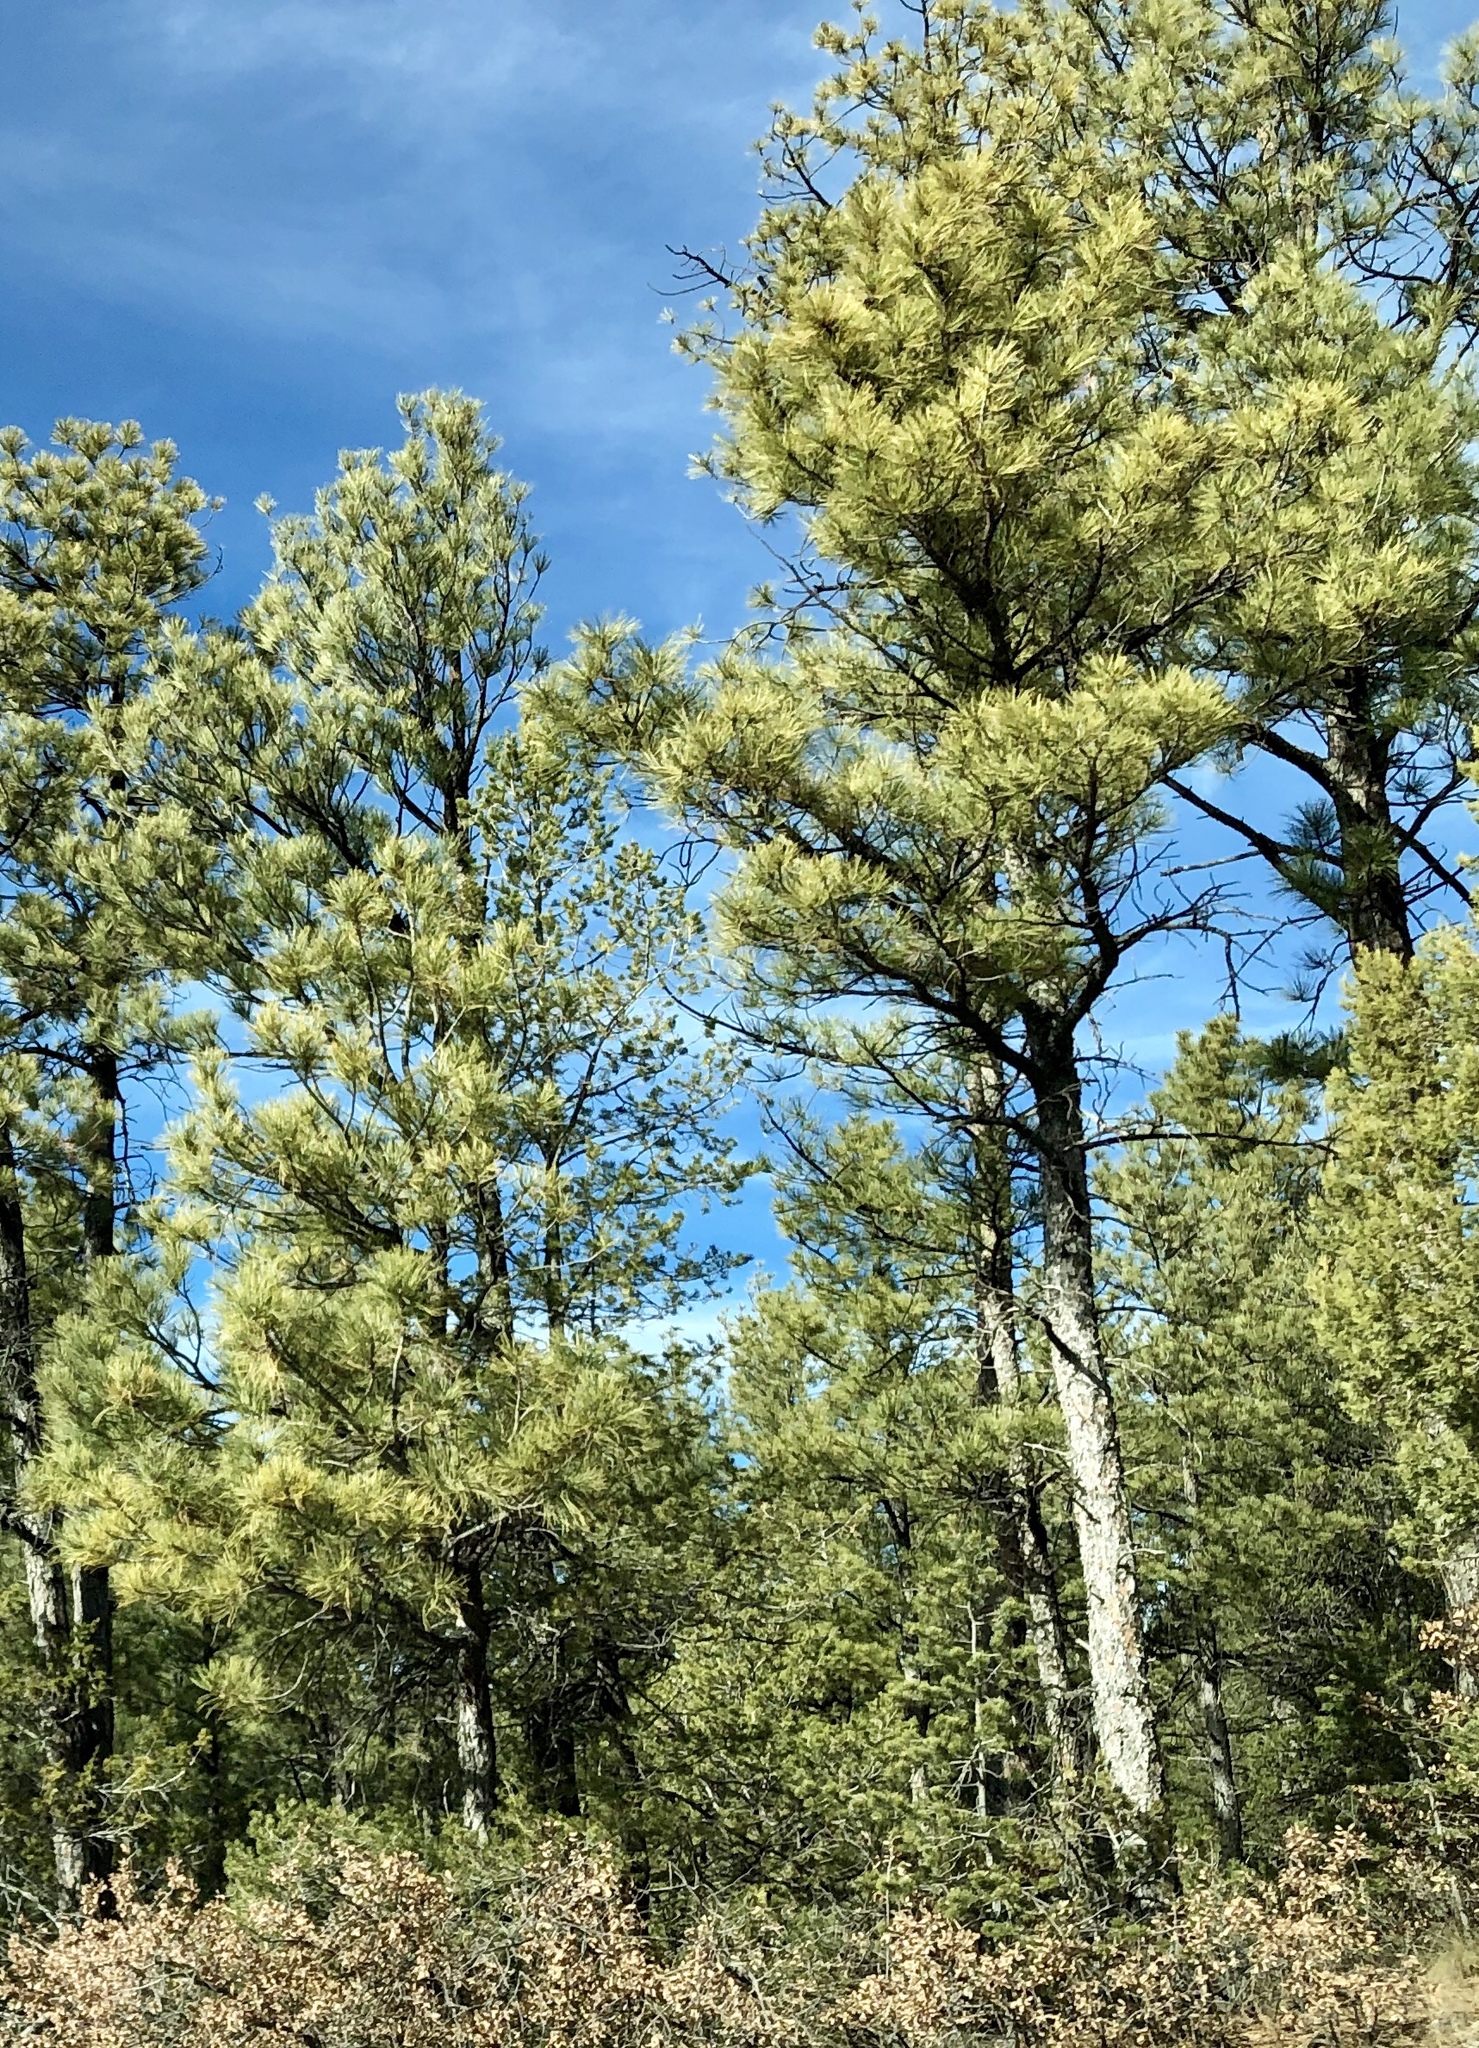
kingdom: Plantae
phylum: Tracheophyta
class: Pinopsida
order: Pinales
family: Pinaceae
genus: Pinus
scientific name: Pinus ponderosa
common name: Western yellow-pine
